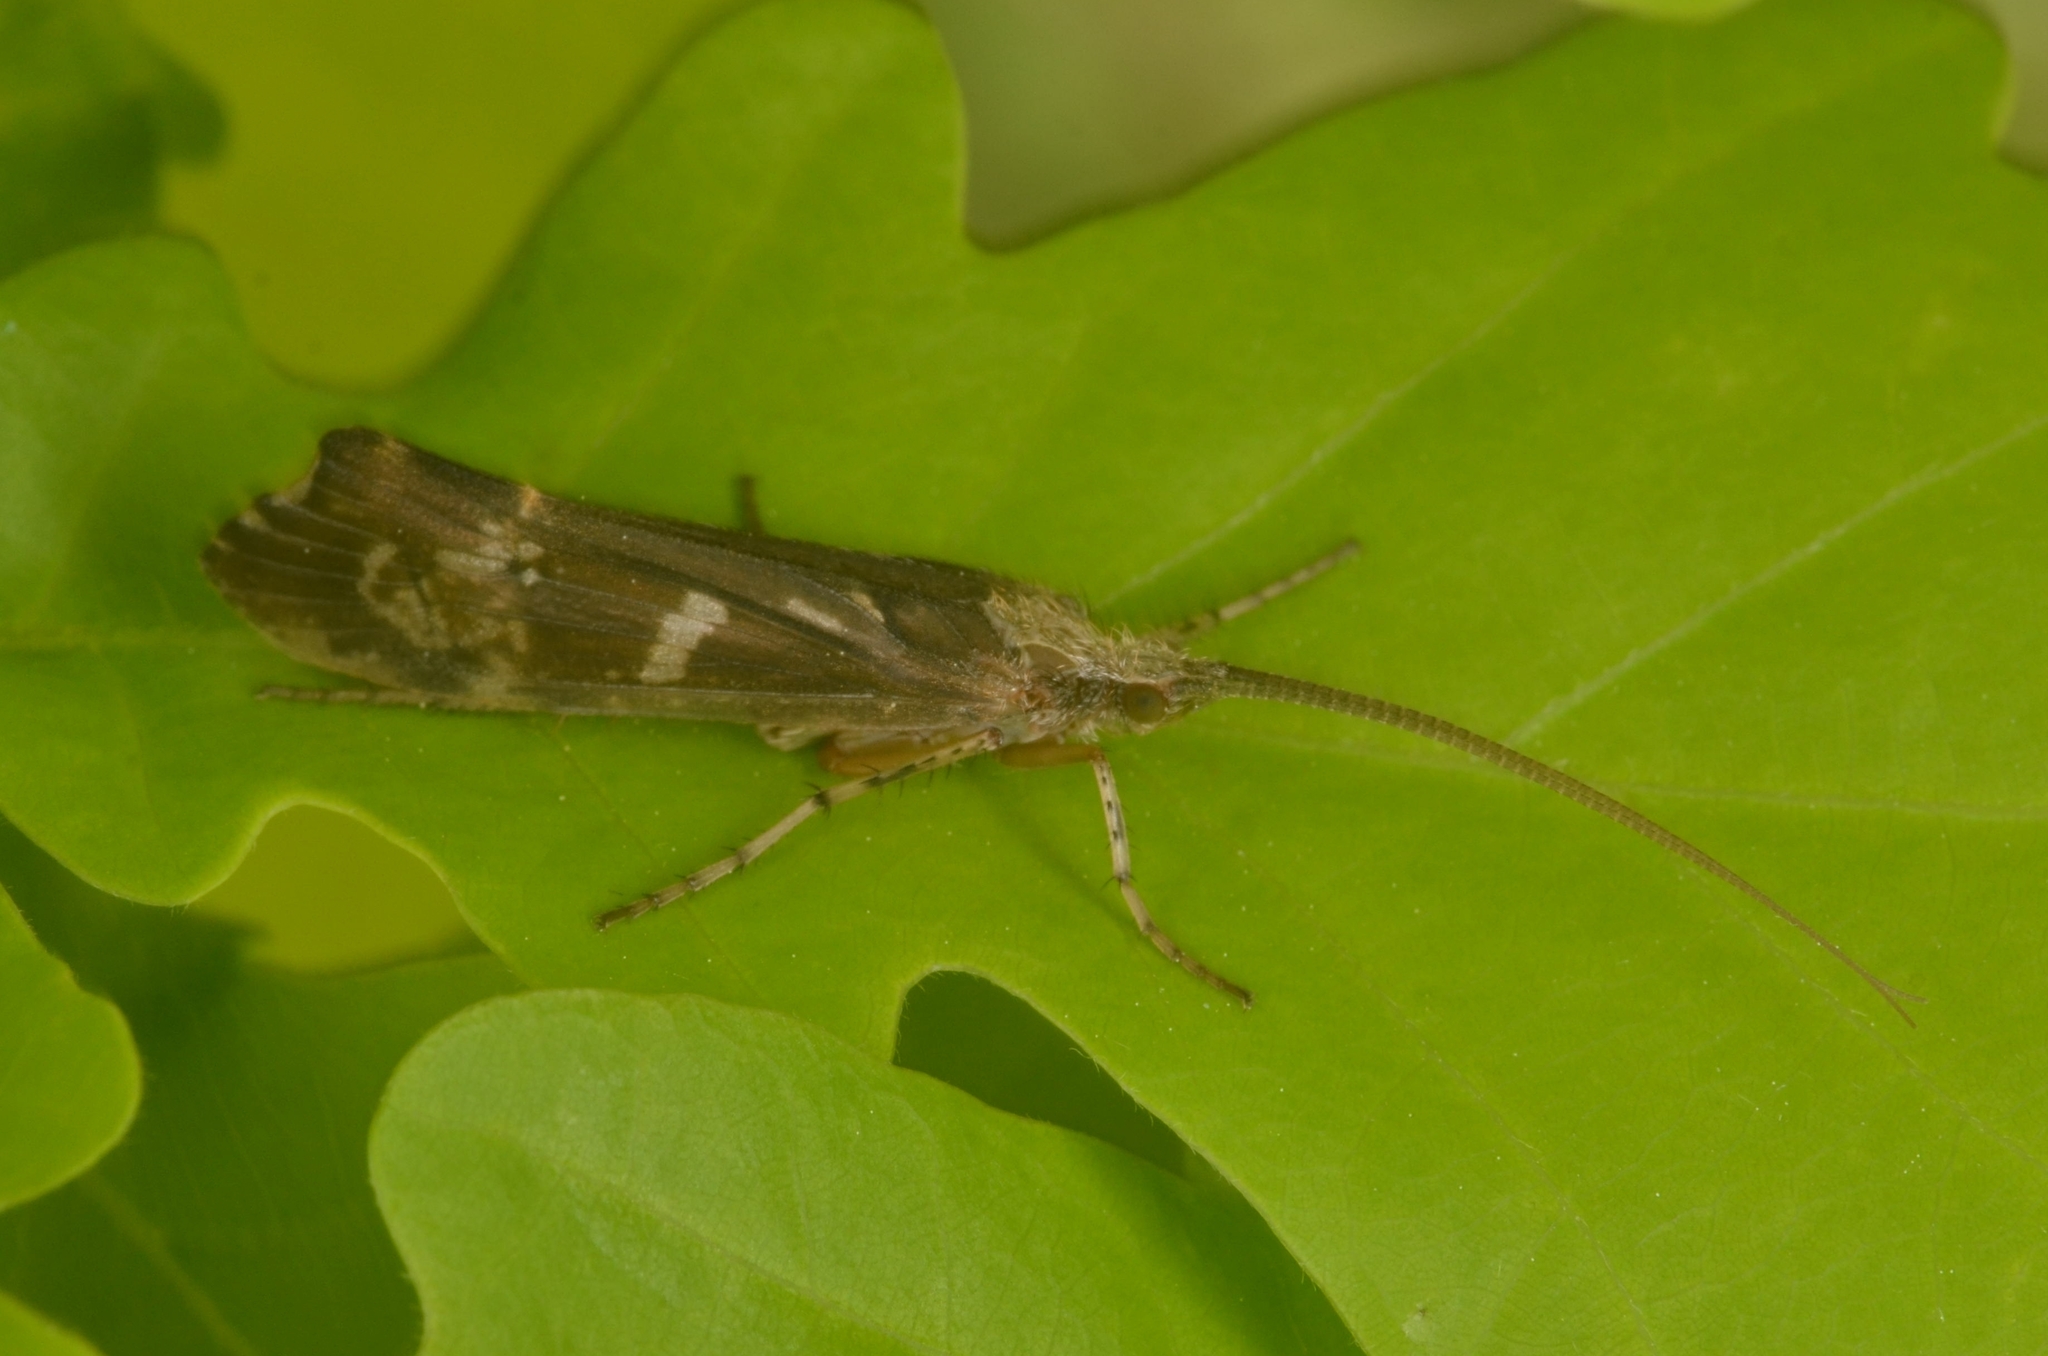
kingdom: Animalia
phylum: Arthropoda
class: Insecta
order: Trichoptera
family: Limnephilidae
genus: Glyphotaelius
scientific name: Glyphotaelius pellucidus
